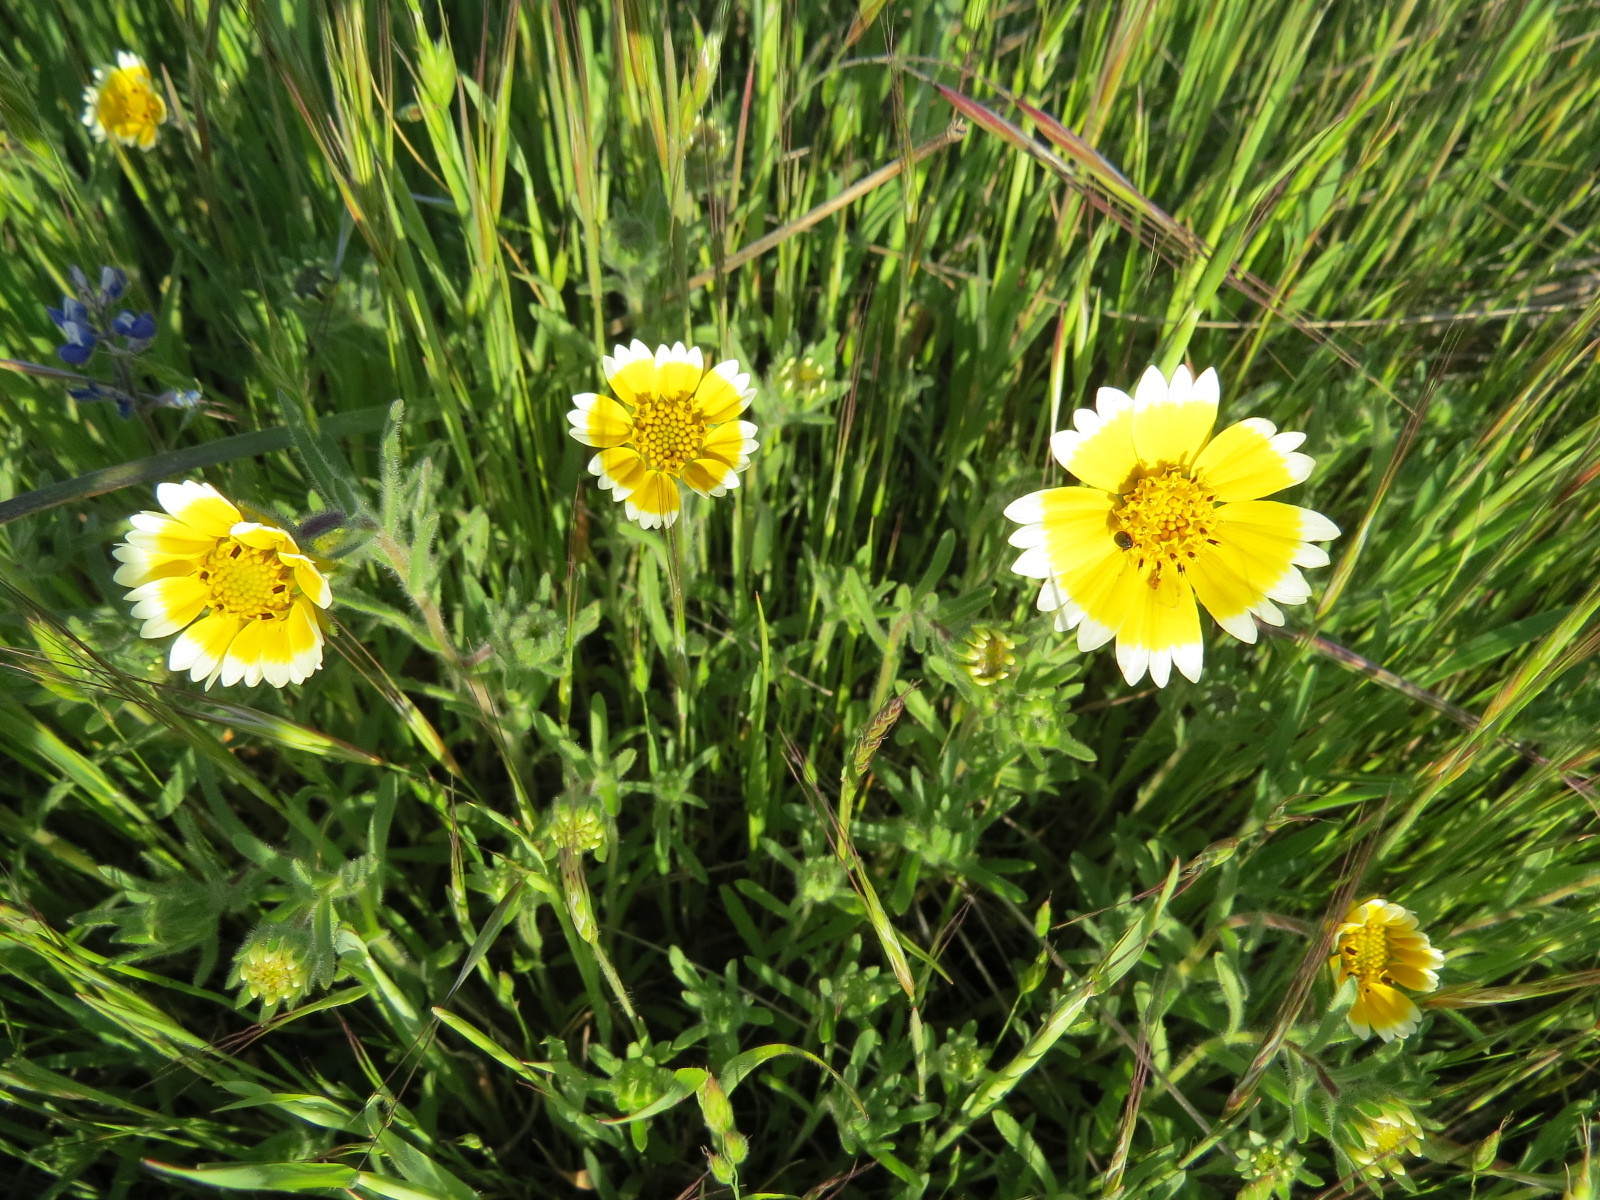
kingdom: Plantae
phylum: Tracheophyta
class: Magnoliopsida
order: Asterales
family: Asteraceae
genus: Layia
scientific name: Layia platyglossa
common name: Tidy-tips
